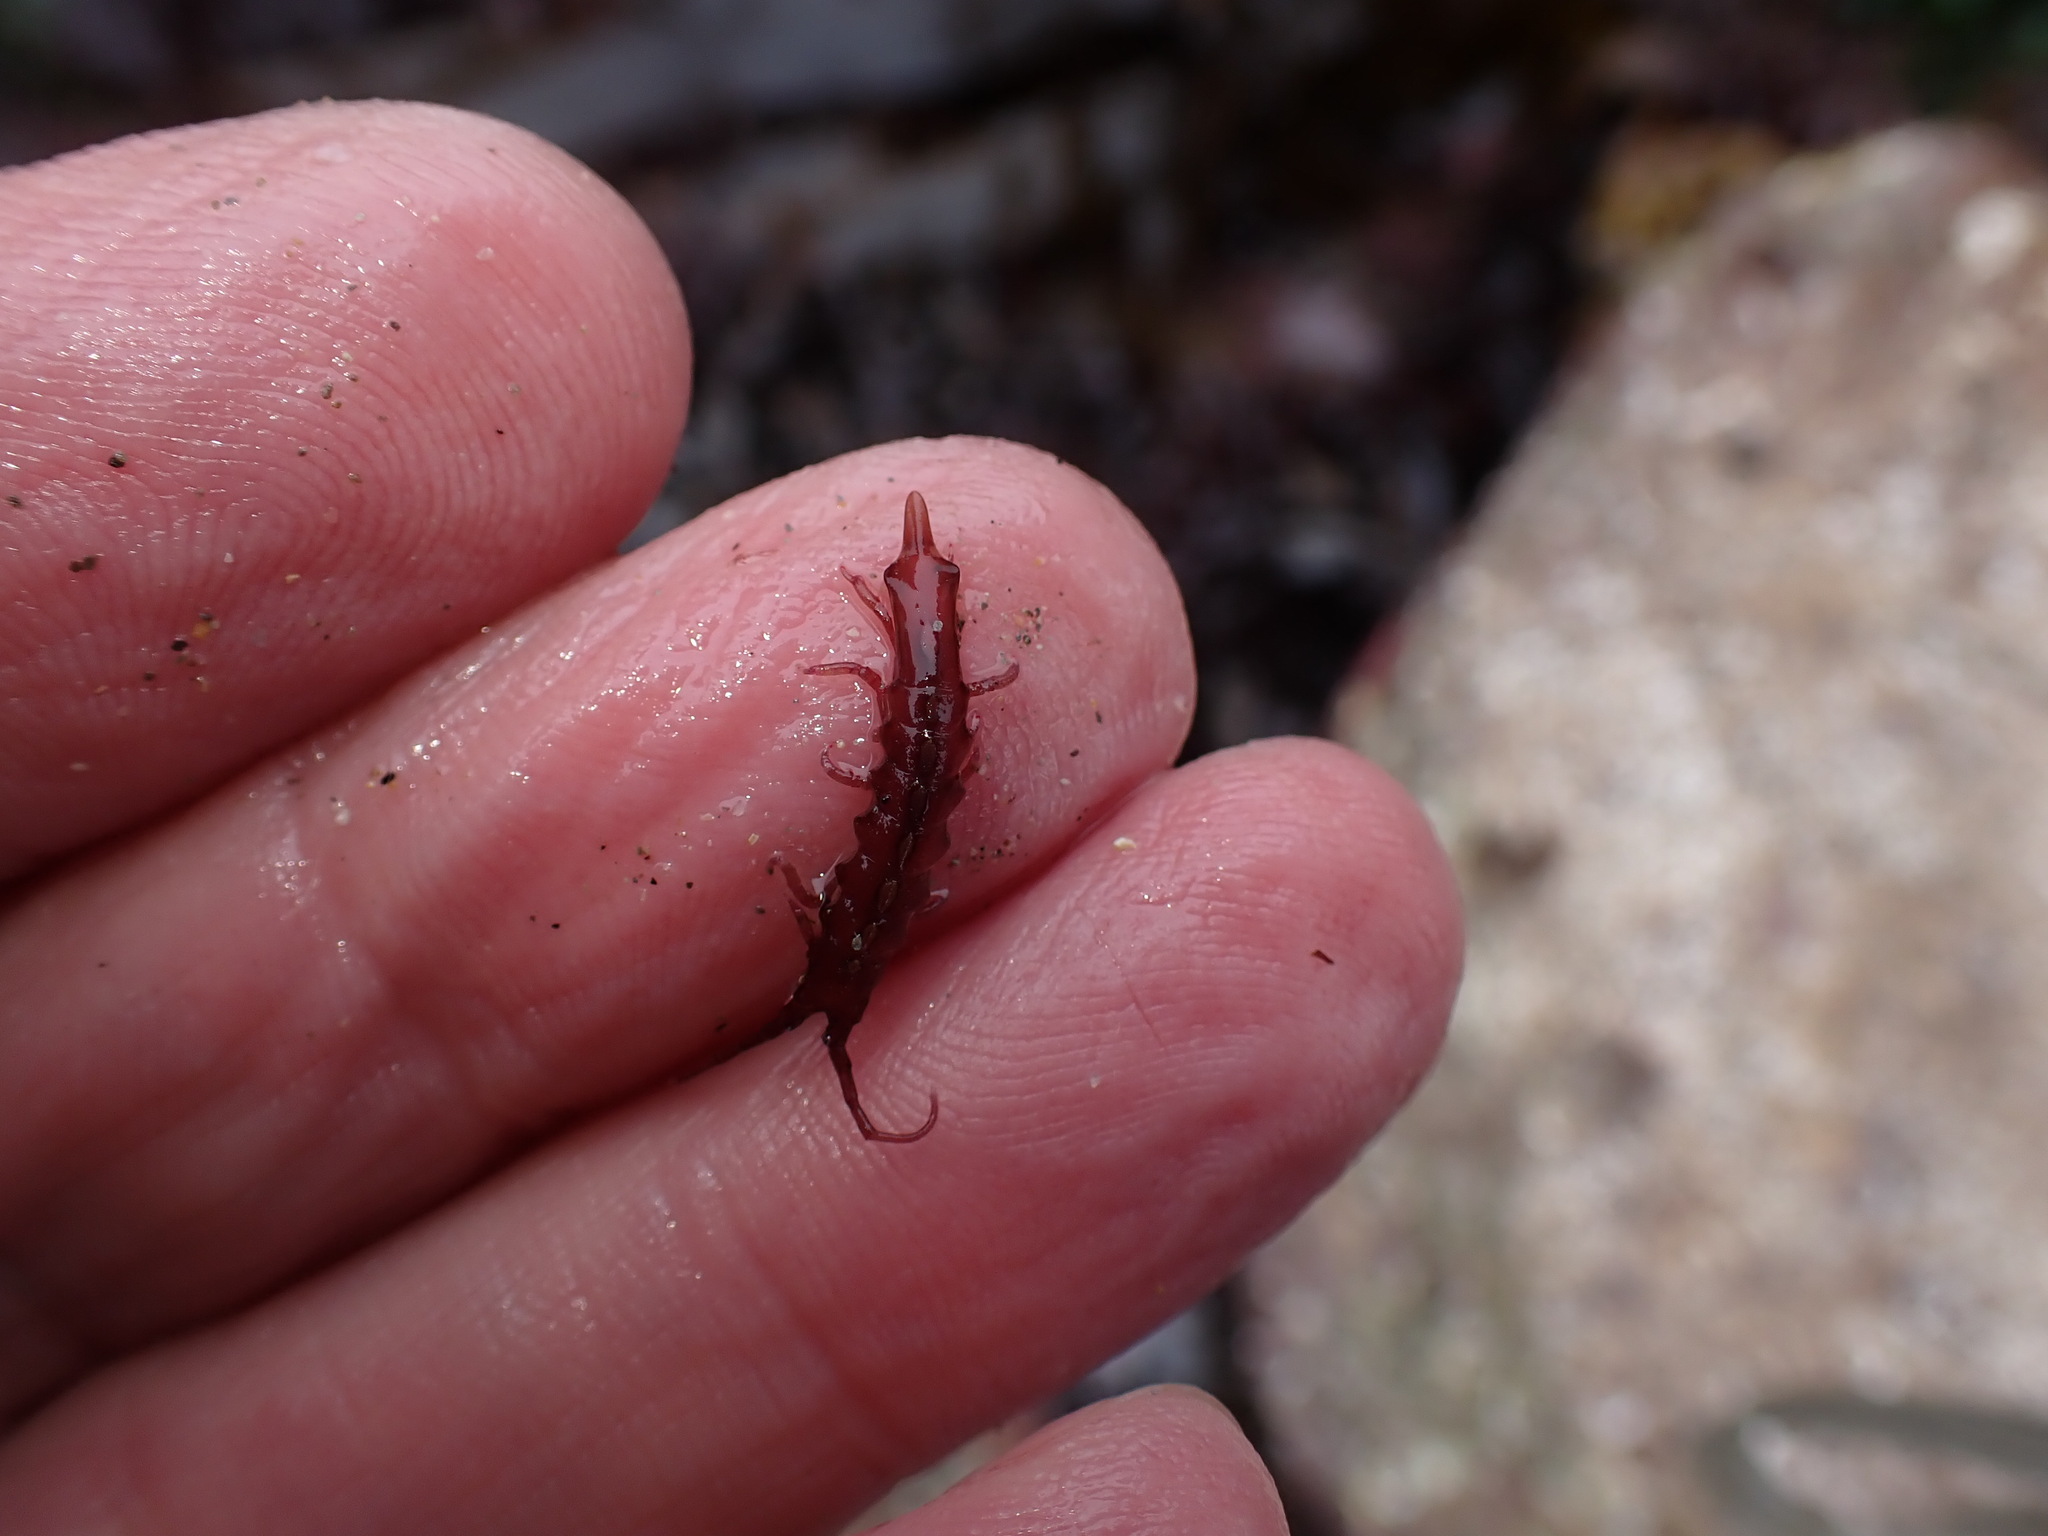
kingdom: Animalia
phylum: Arthropoda
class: Malacostraca
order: Isopoda
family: Idoteidae
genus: Stenosoma
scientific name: Stenosoma lancifer
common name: Sea slater
